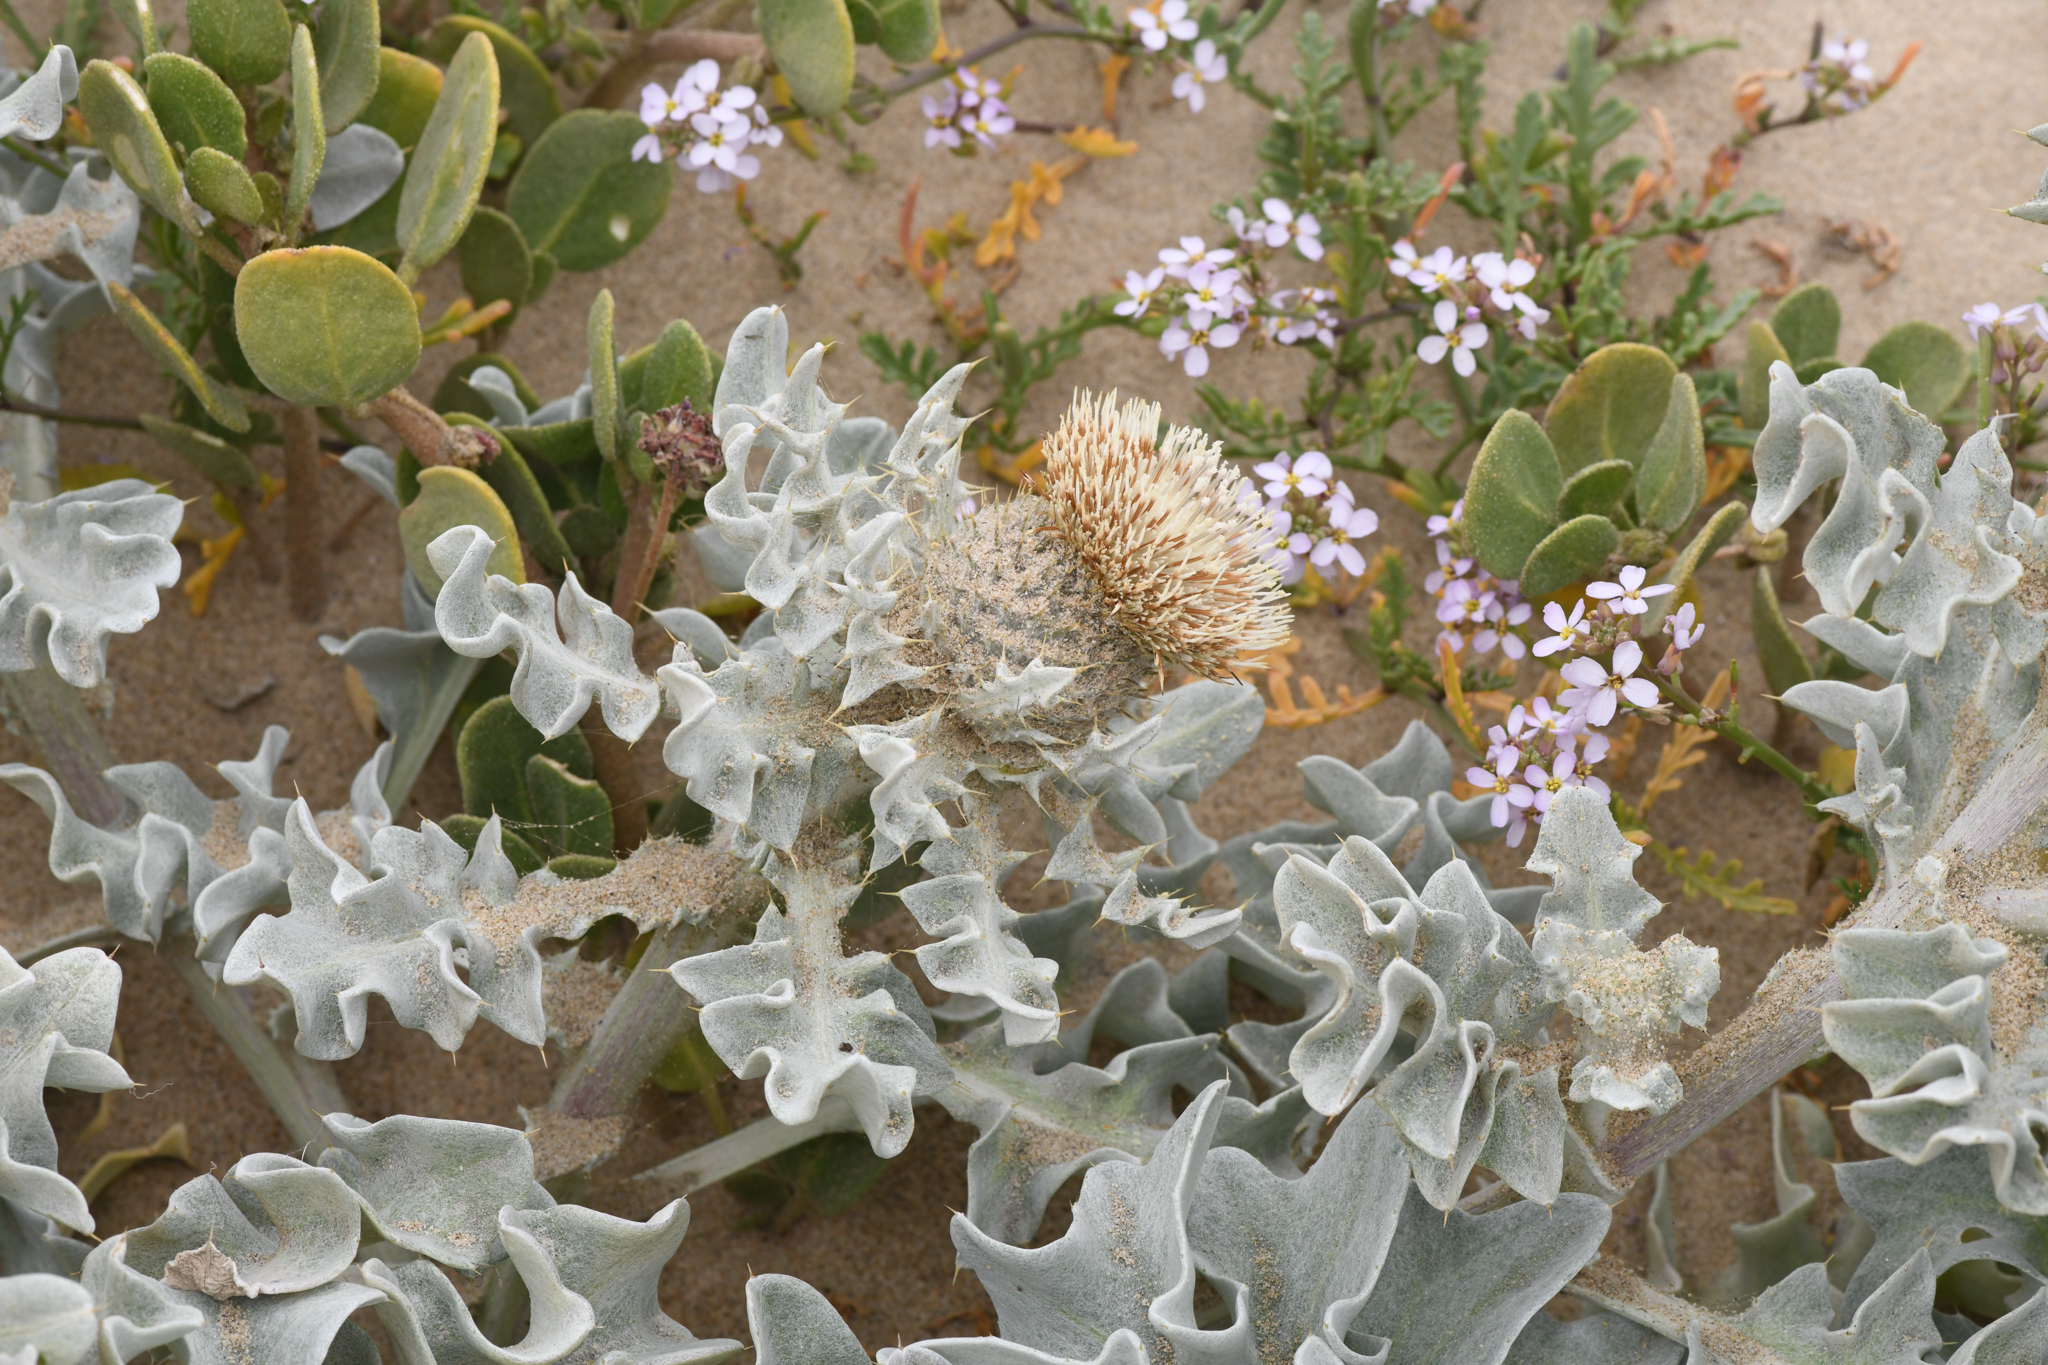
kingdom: Plantae
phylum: Tracheophyta
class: Magnoliopsida
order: Asterales
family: Asteraceae
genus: Cirsium
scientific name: Cirsium rhothophilum
